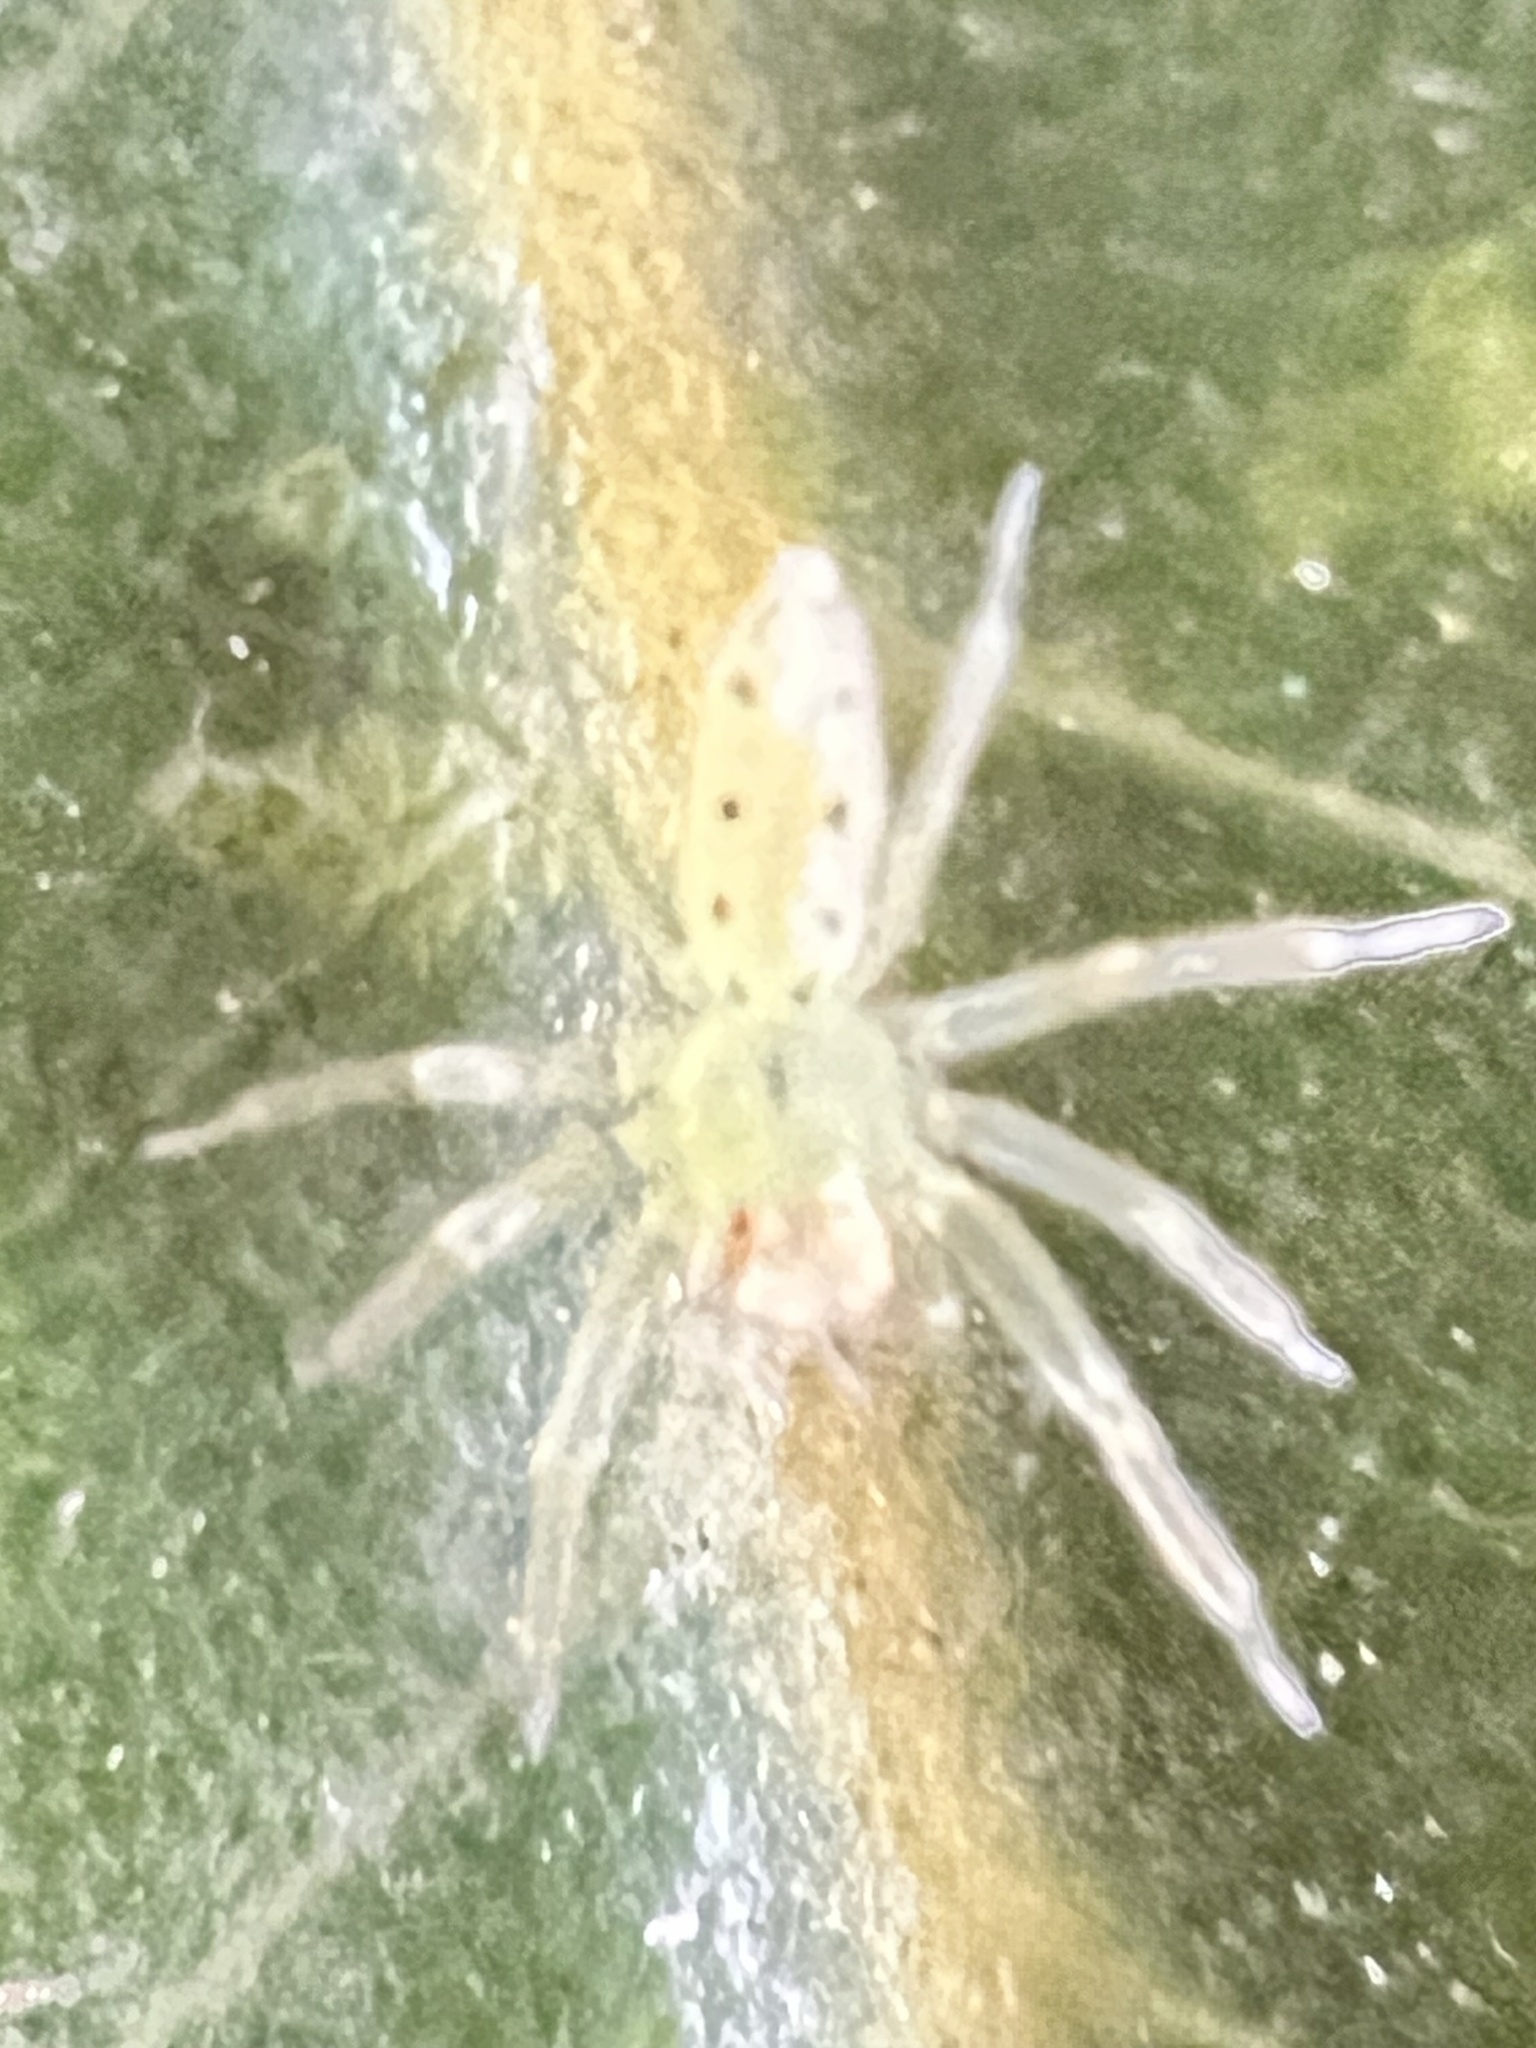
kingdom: Animalia
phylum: Arthropoda
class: Arachnida
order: Araneae
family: Salticidae
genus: Lyssomanes
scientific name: Lyssomanes viridis
